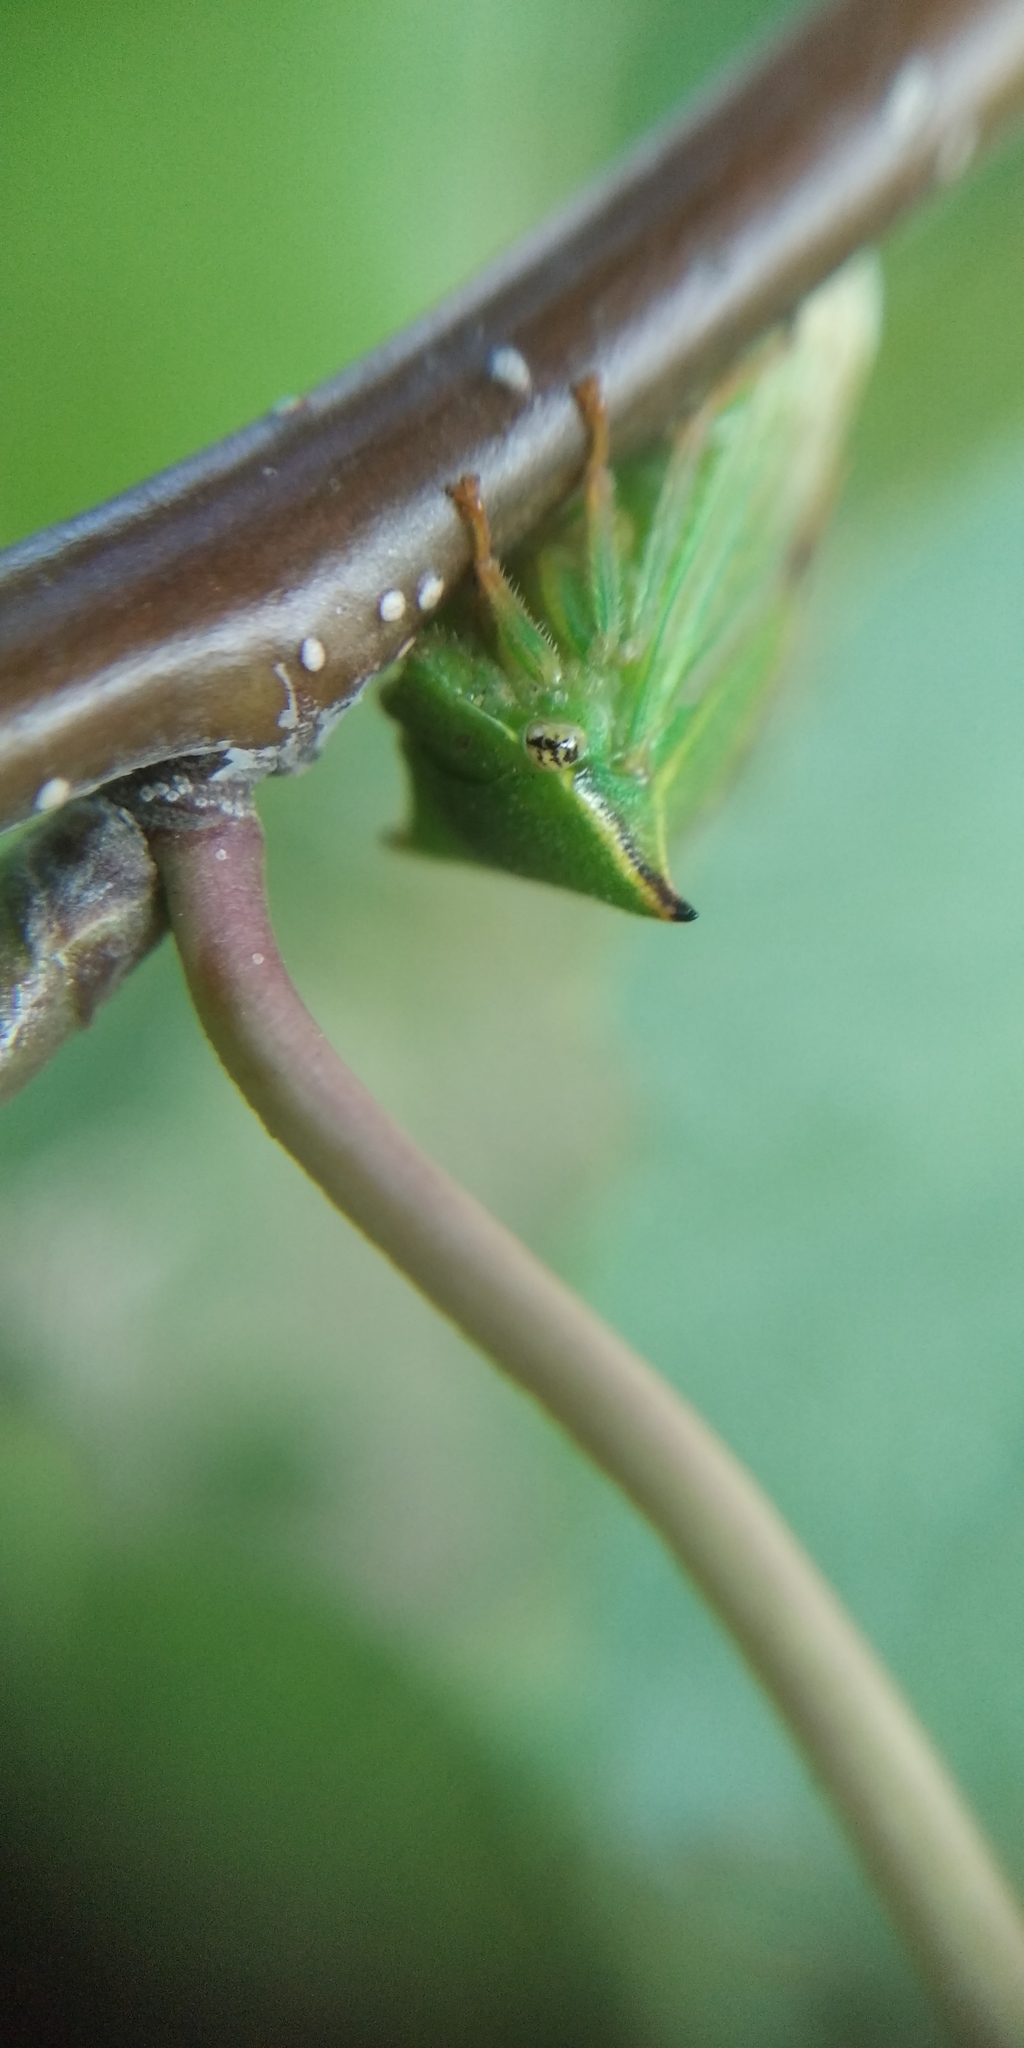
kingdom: Animalia
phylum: Arthropoda
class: Insecta
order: Hemiptera
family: Membracidae
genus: Stictocephala
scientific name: Stictocephala bisonia
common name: American buffalo treehopper
